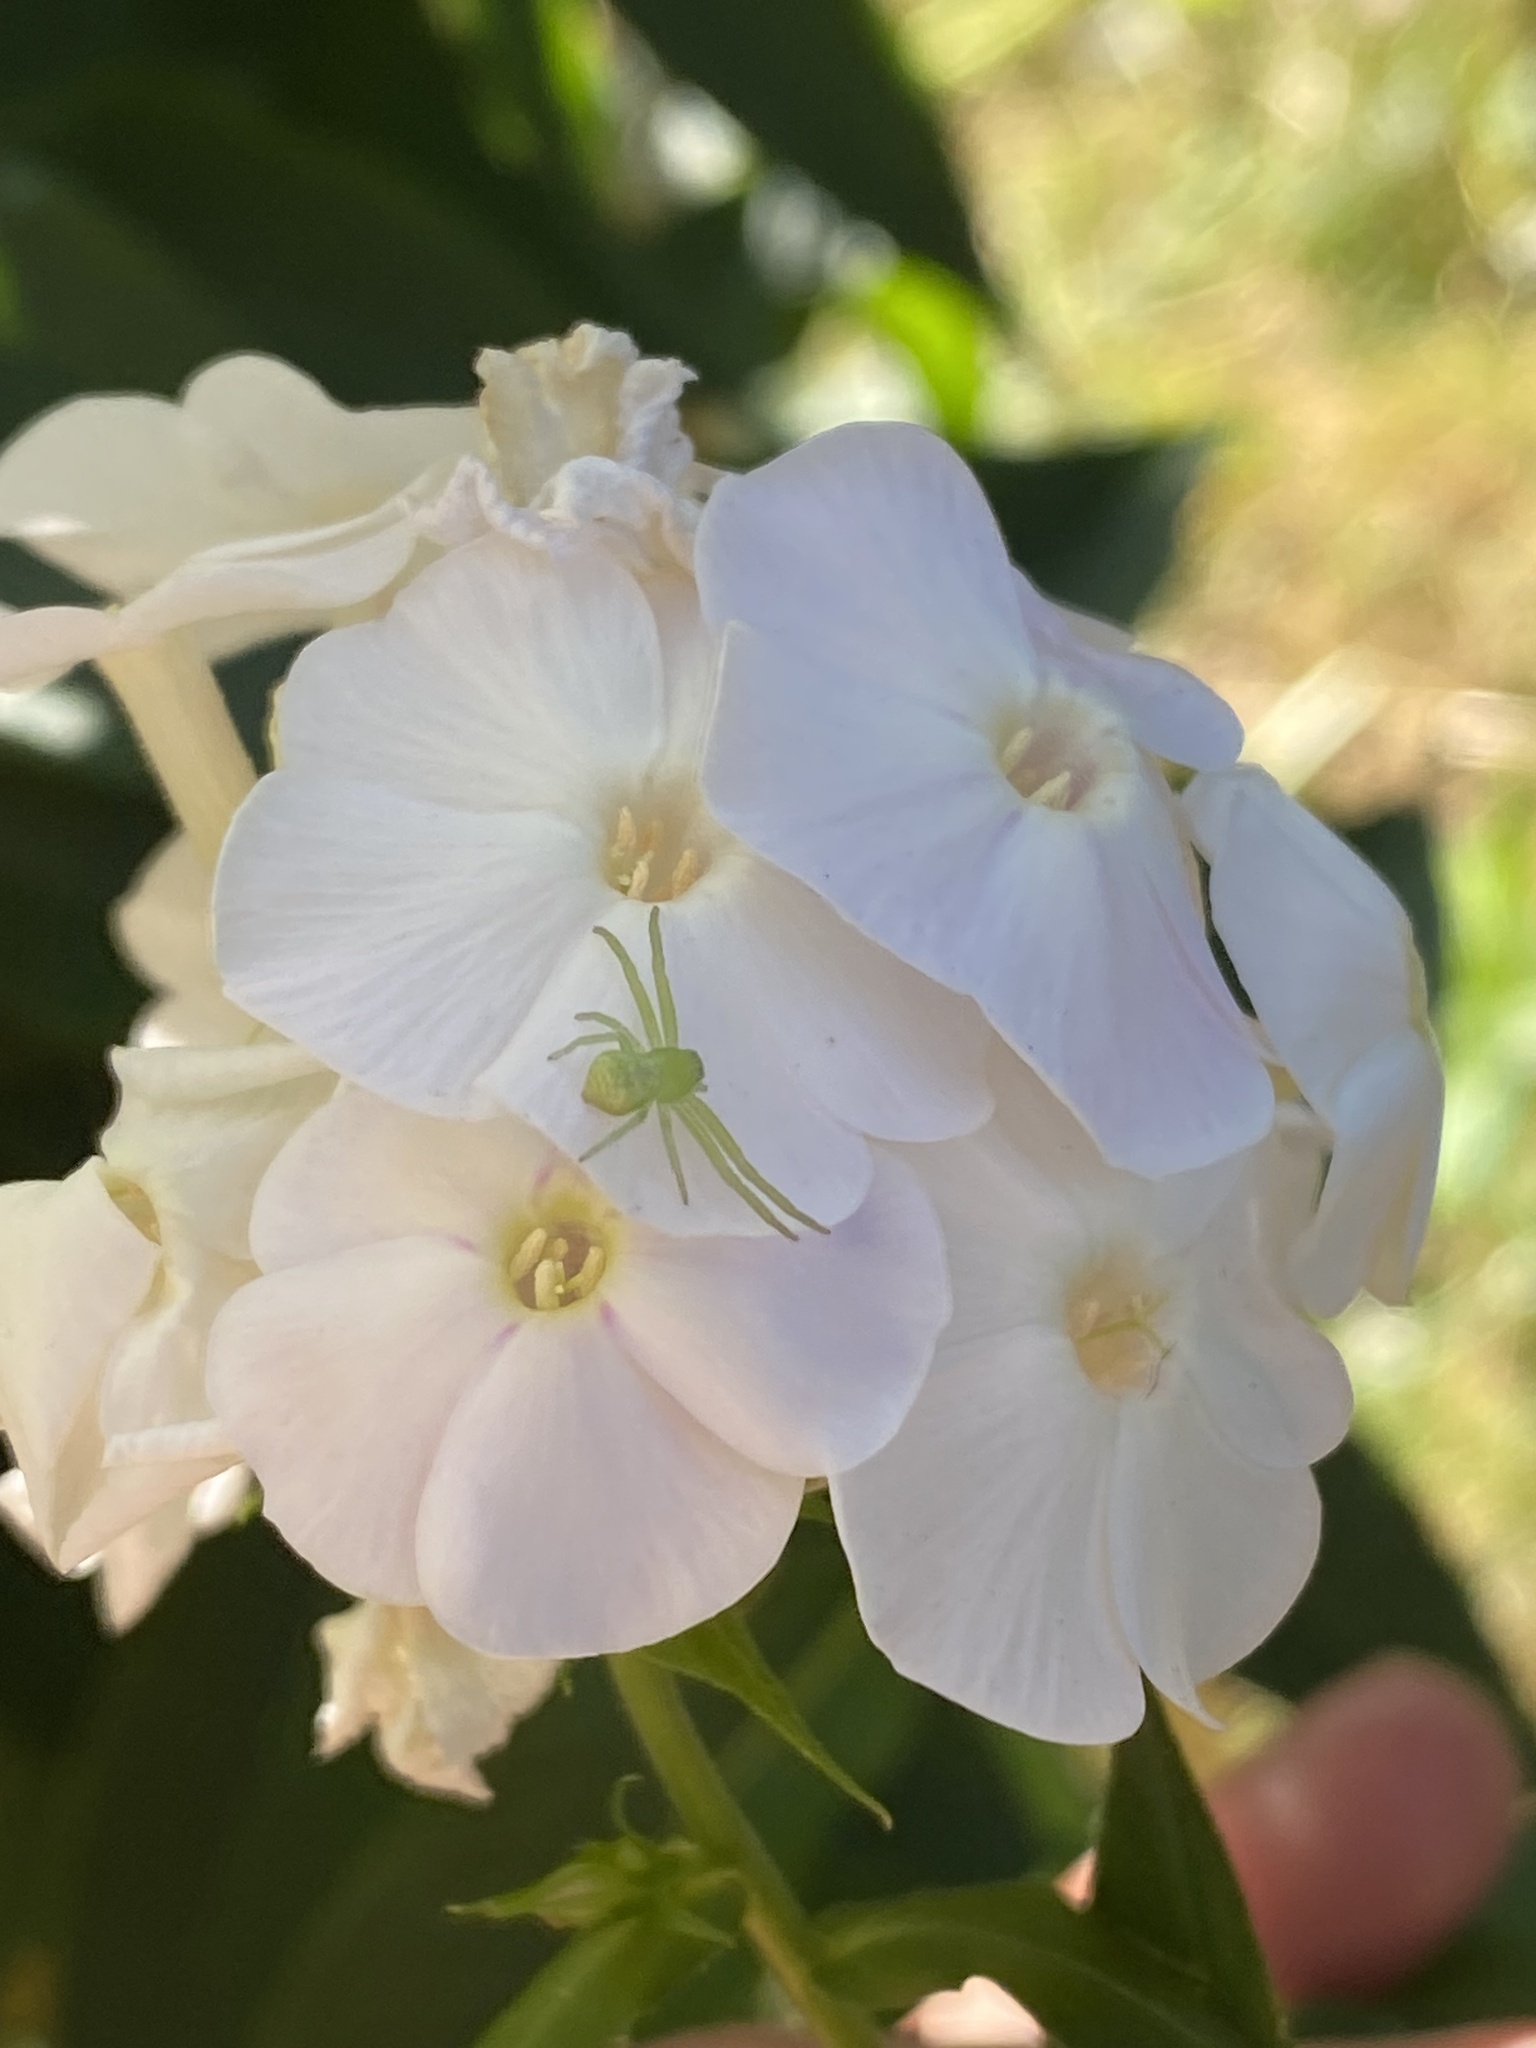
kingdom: Animalia
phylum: Arthropoda
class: Arachnida
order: Araneae
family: Thomisidae
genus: Misumena
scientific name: Misumena vatia
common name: Goldenrod crab spider
